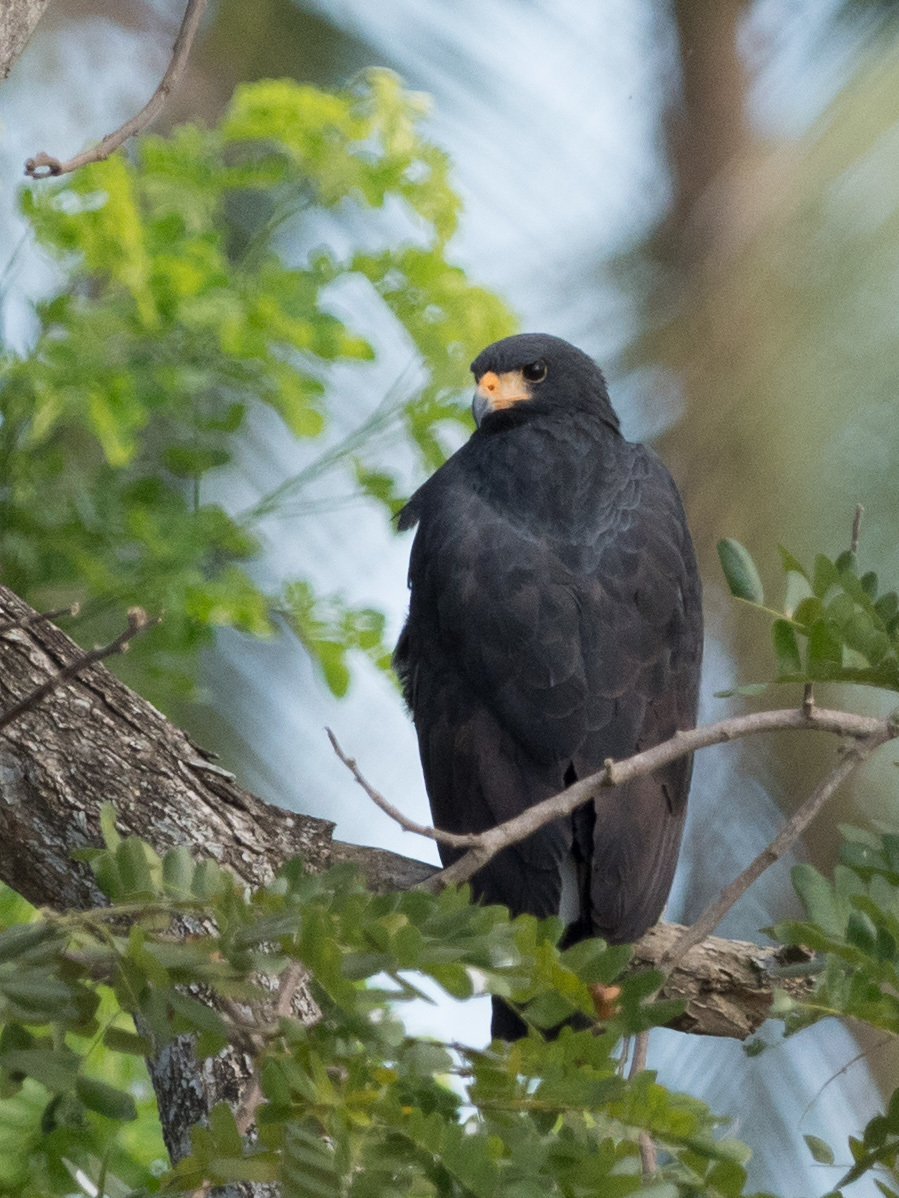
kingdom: Animalia
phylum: Chordata
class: Aves
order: Accipitriformes
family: Accipitridae
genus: Buteogallus
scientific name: Buteogallus anthracinus
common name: Common black hawk
